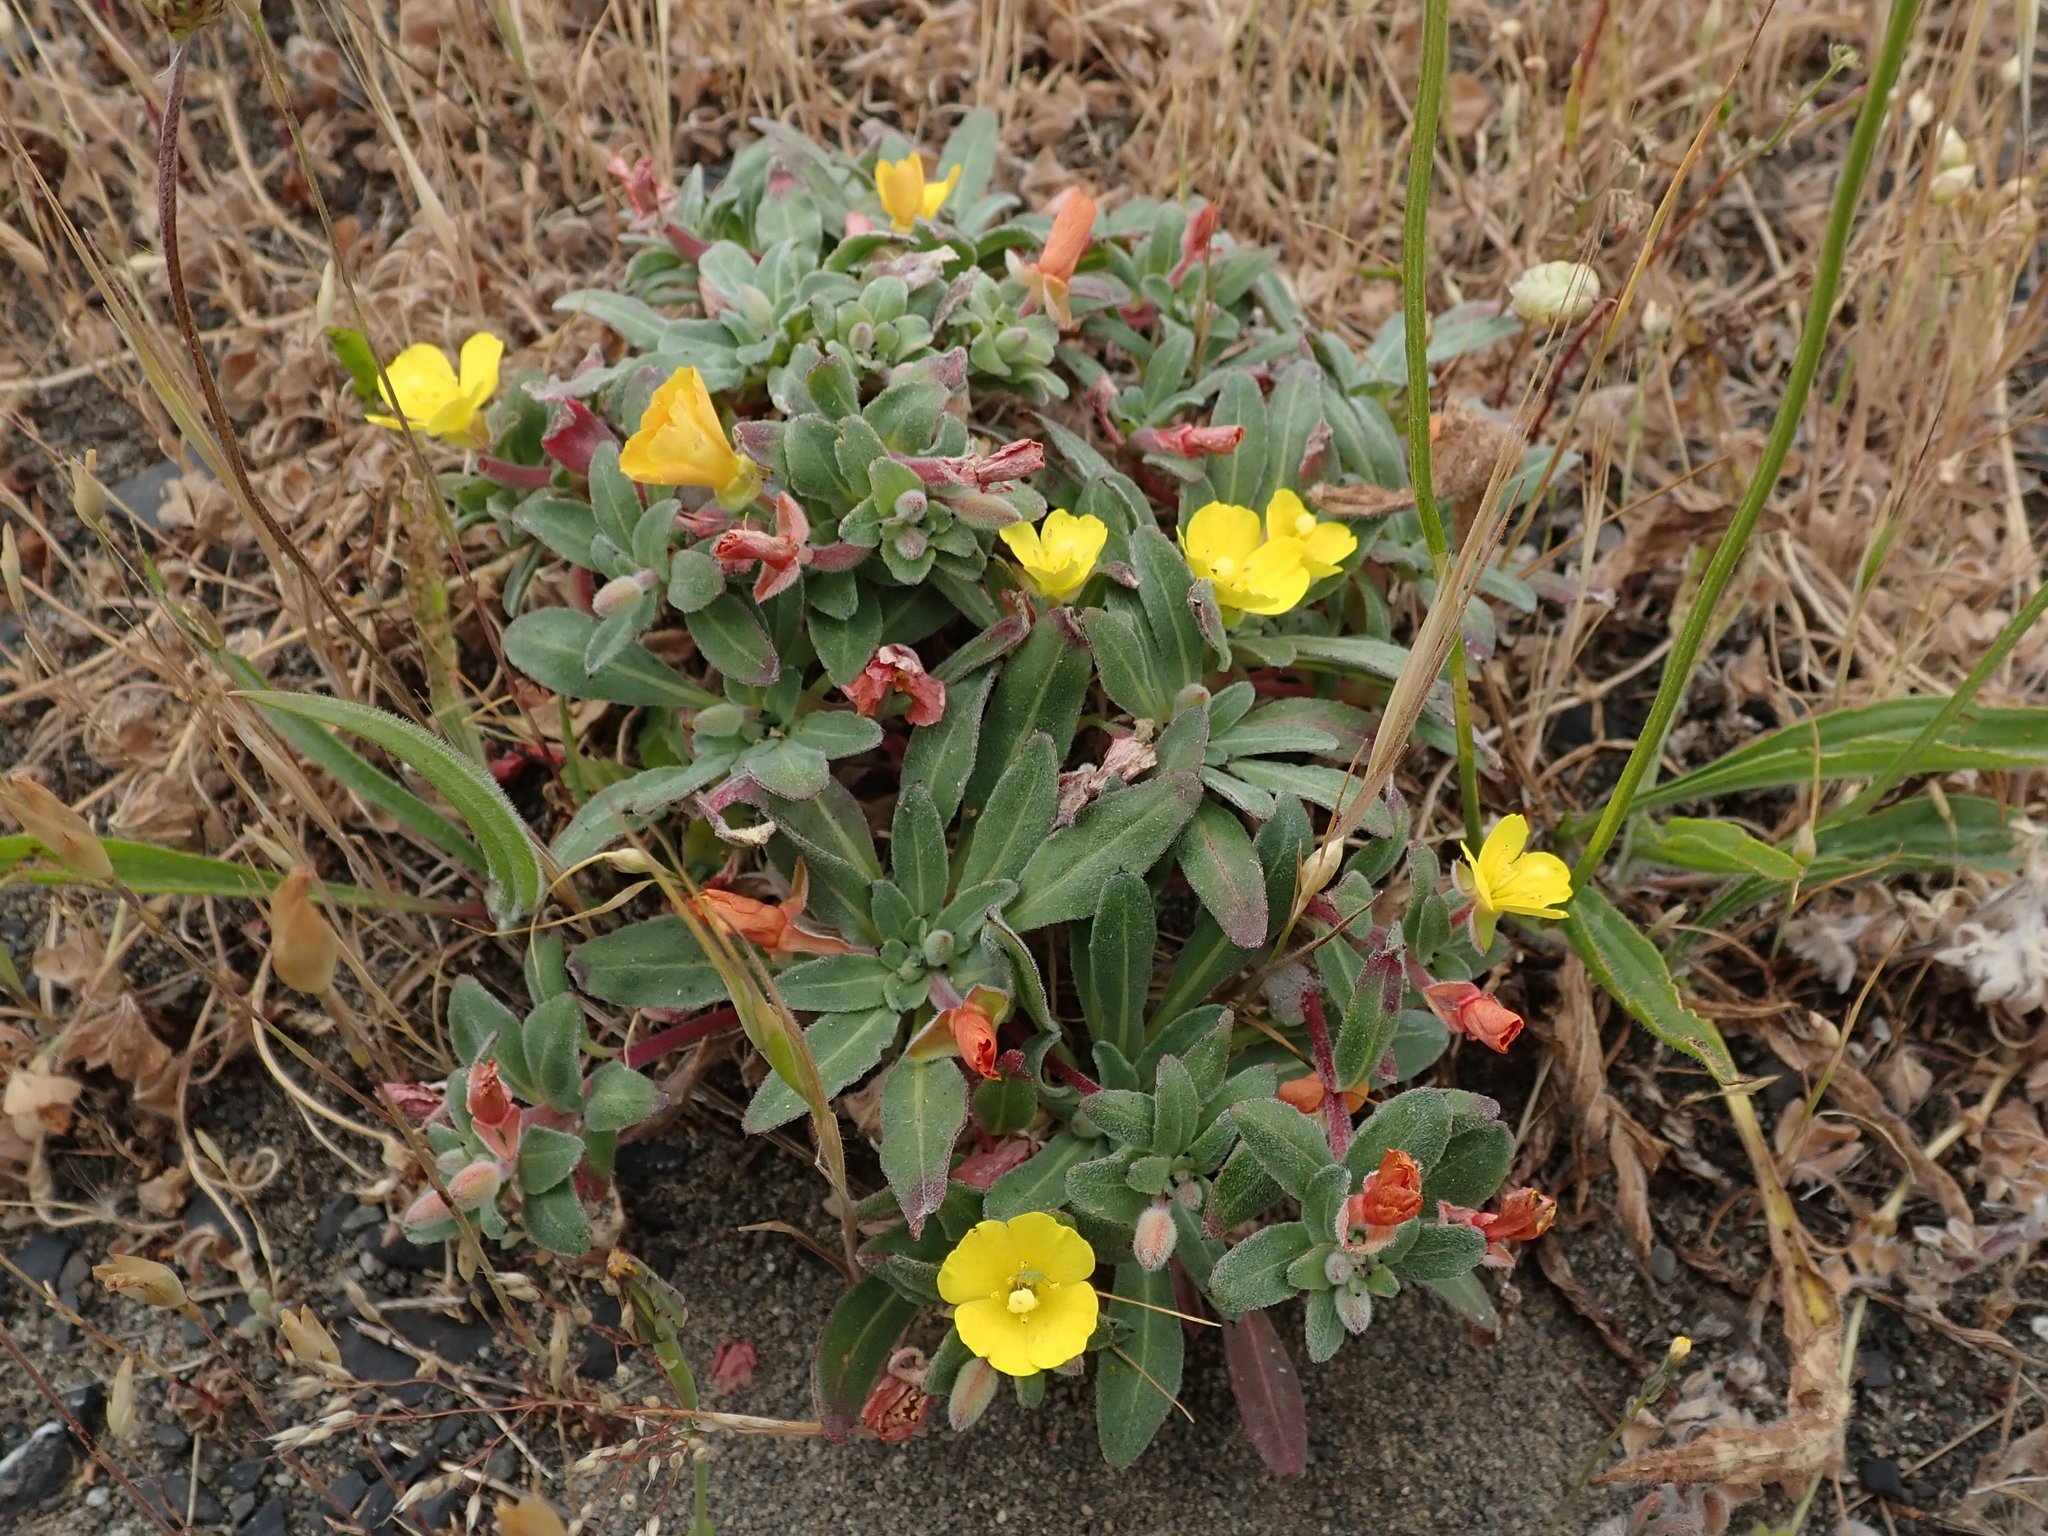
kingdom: Plantae
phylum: Tracheophyta
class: Magnoliopsida
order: Myrtales
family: Onagraceae
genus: Camissoniopsis
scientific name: Camissoniopsis cheiranthifolia
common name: Beach suncup
